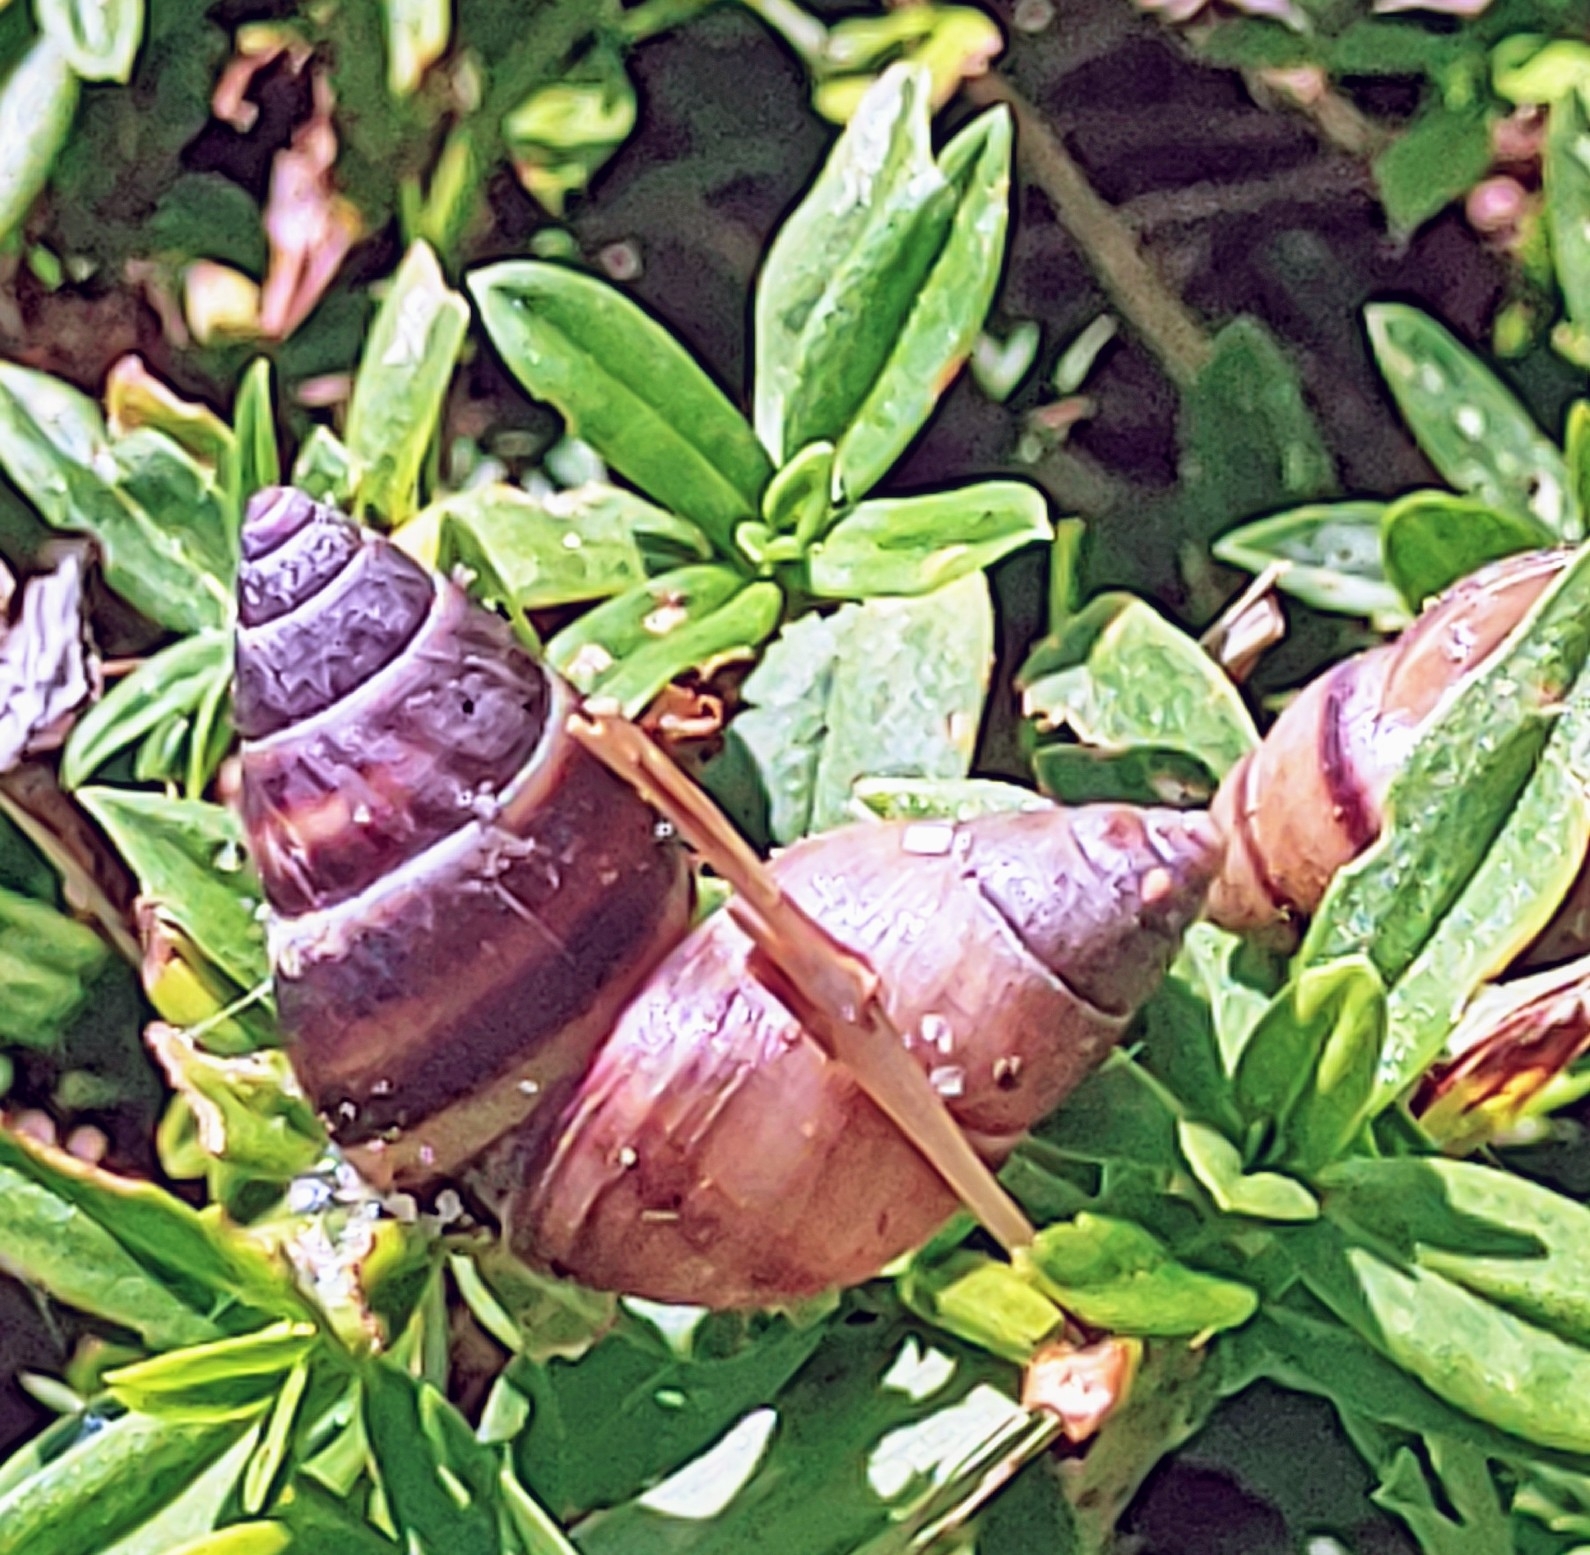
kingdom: Animalia
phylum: Mollusca
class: Gastropoda
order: Stylommatophora
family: Bulimulidae
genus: Bulimulus
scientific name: Bulimulus guadalupensis
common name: West indian bulimulus
